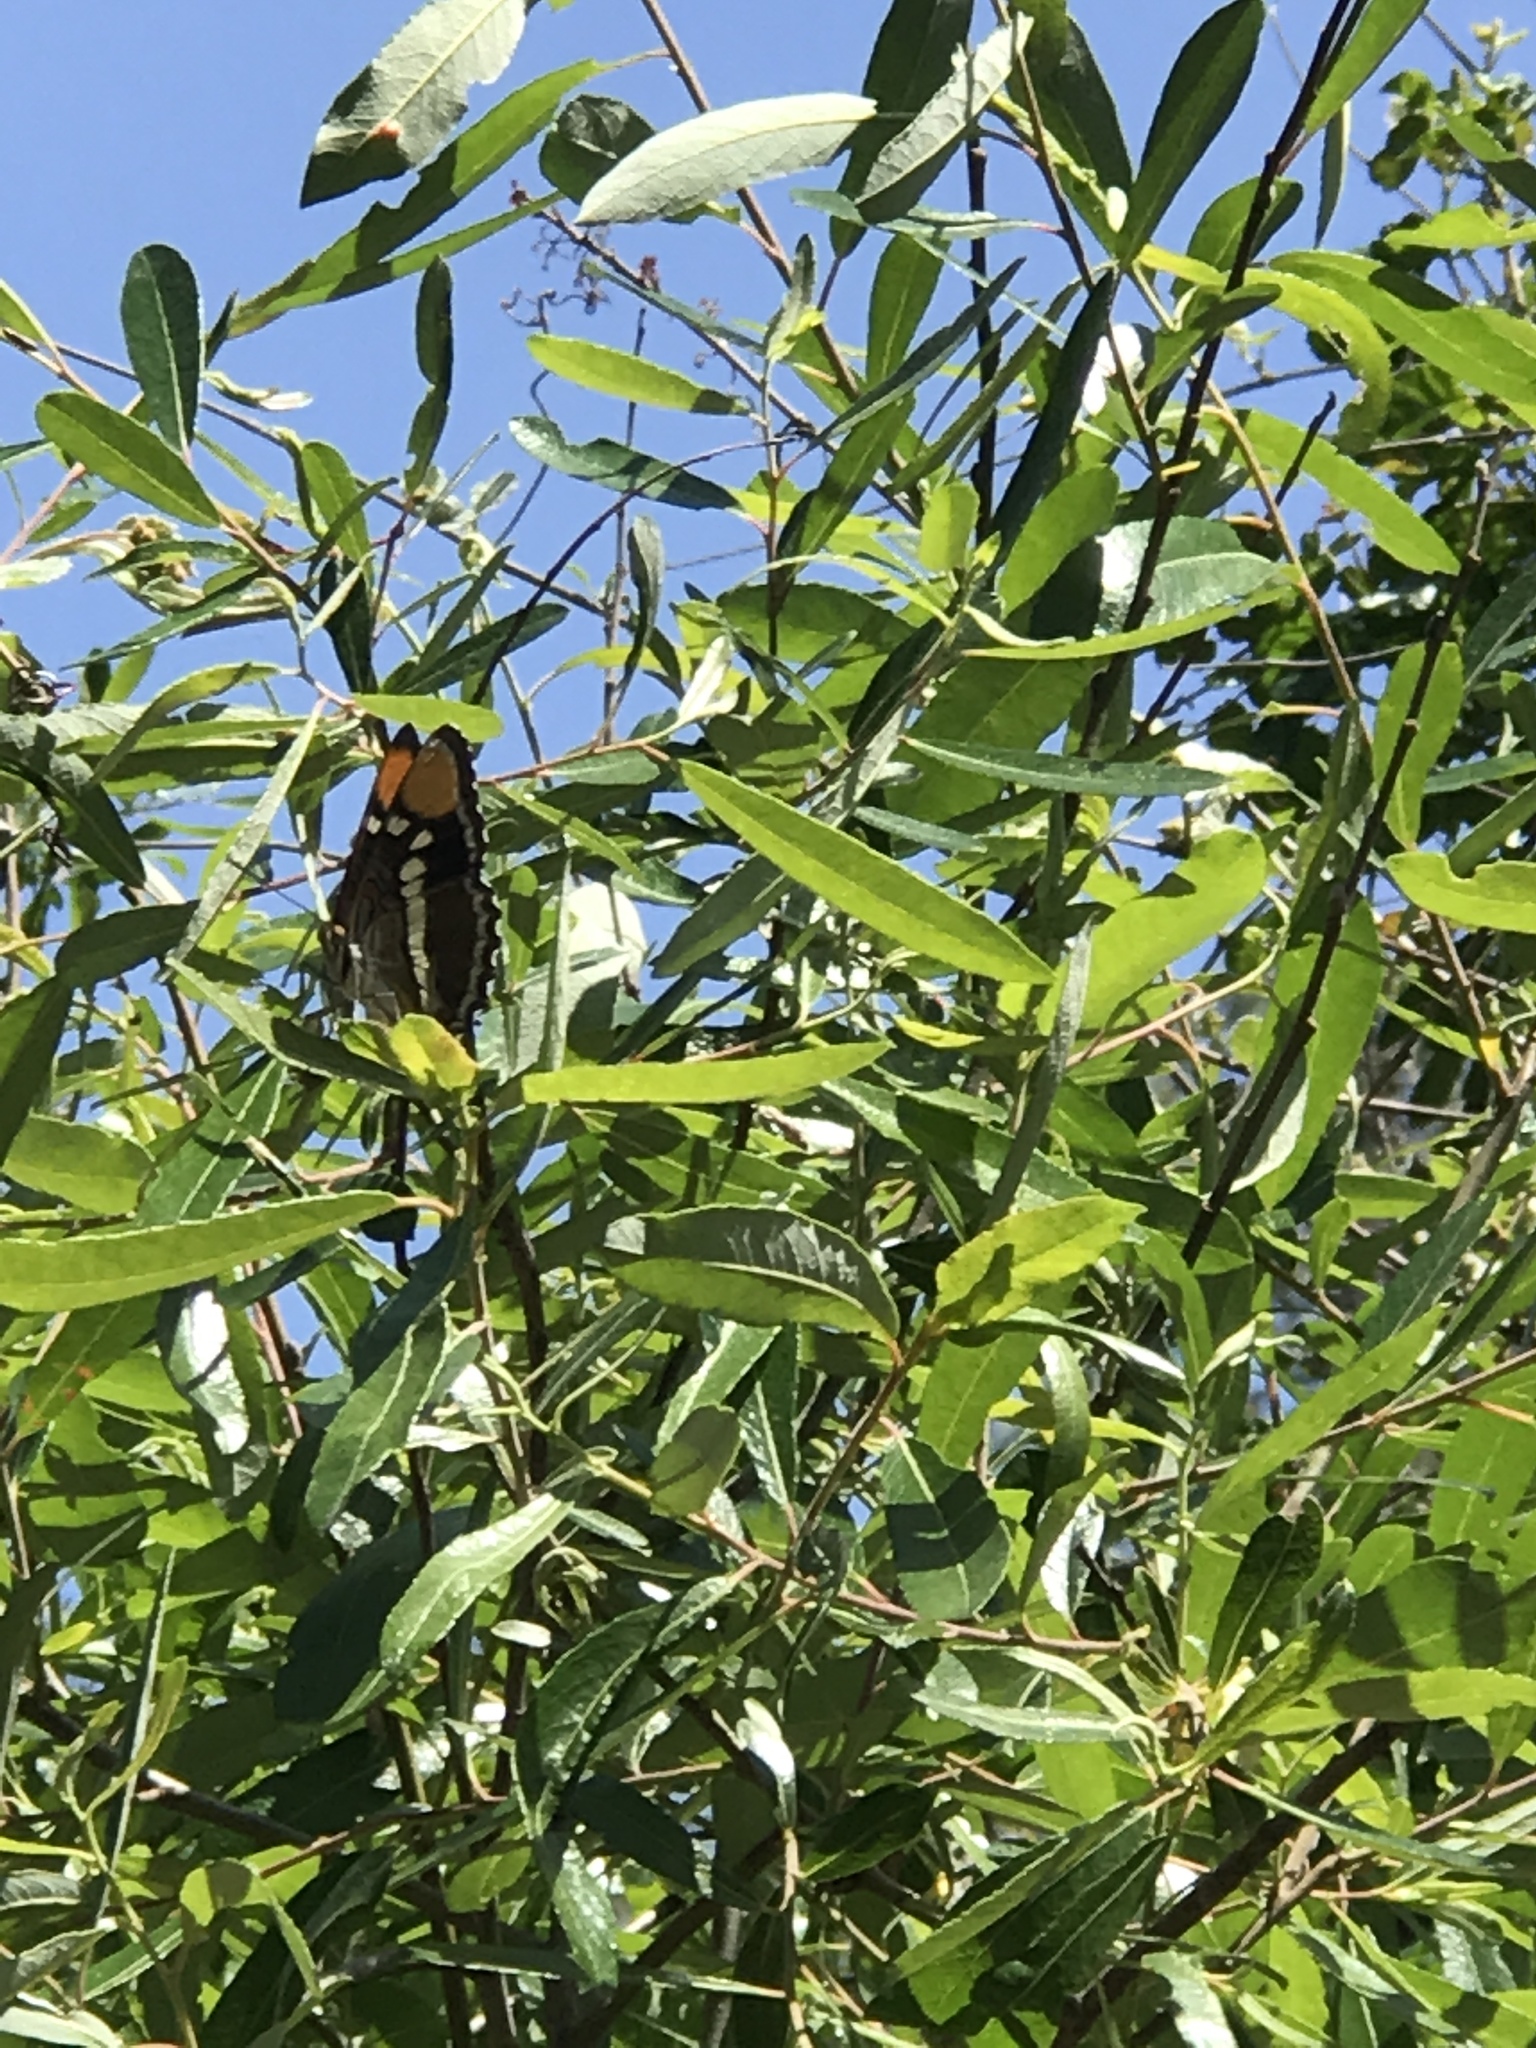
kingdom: Animalia
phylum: Arthropoda
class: Insecta
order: Lepidoptera
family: Nymphalidae
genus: Limenitis
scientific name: Limenitis bredowii
